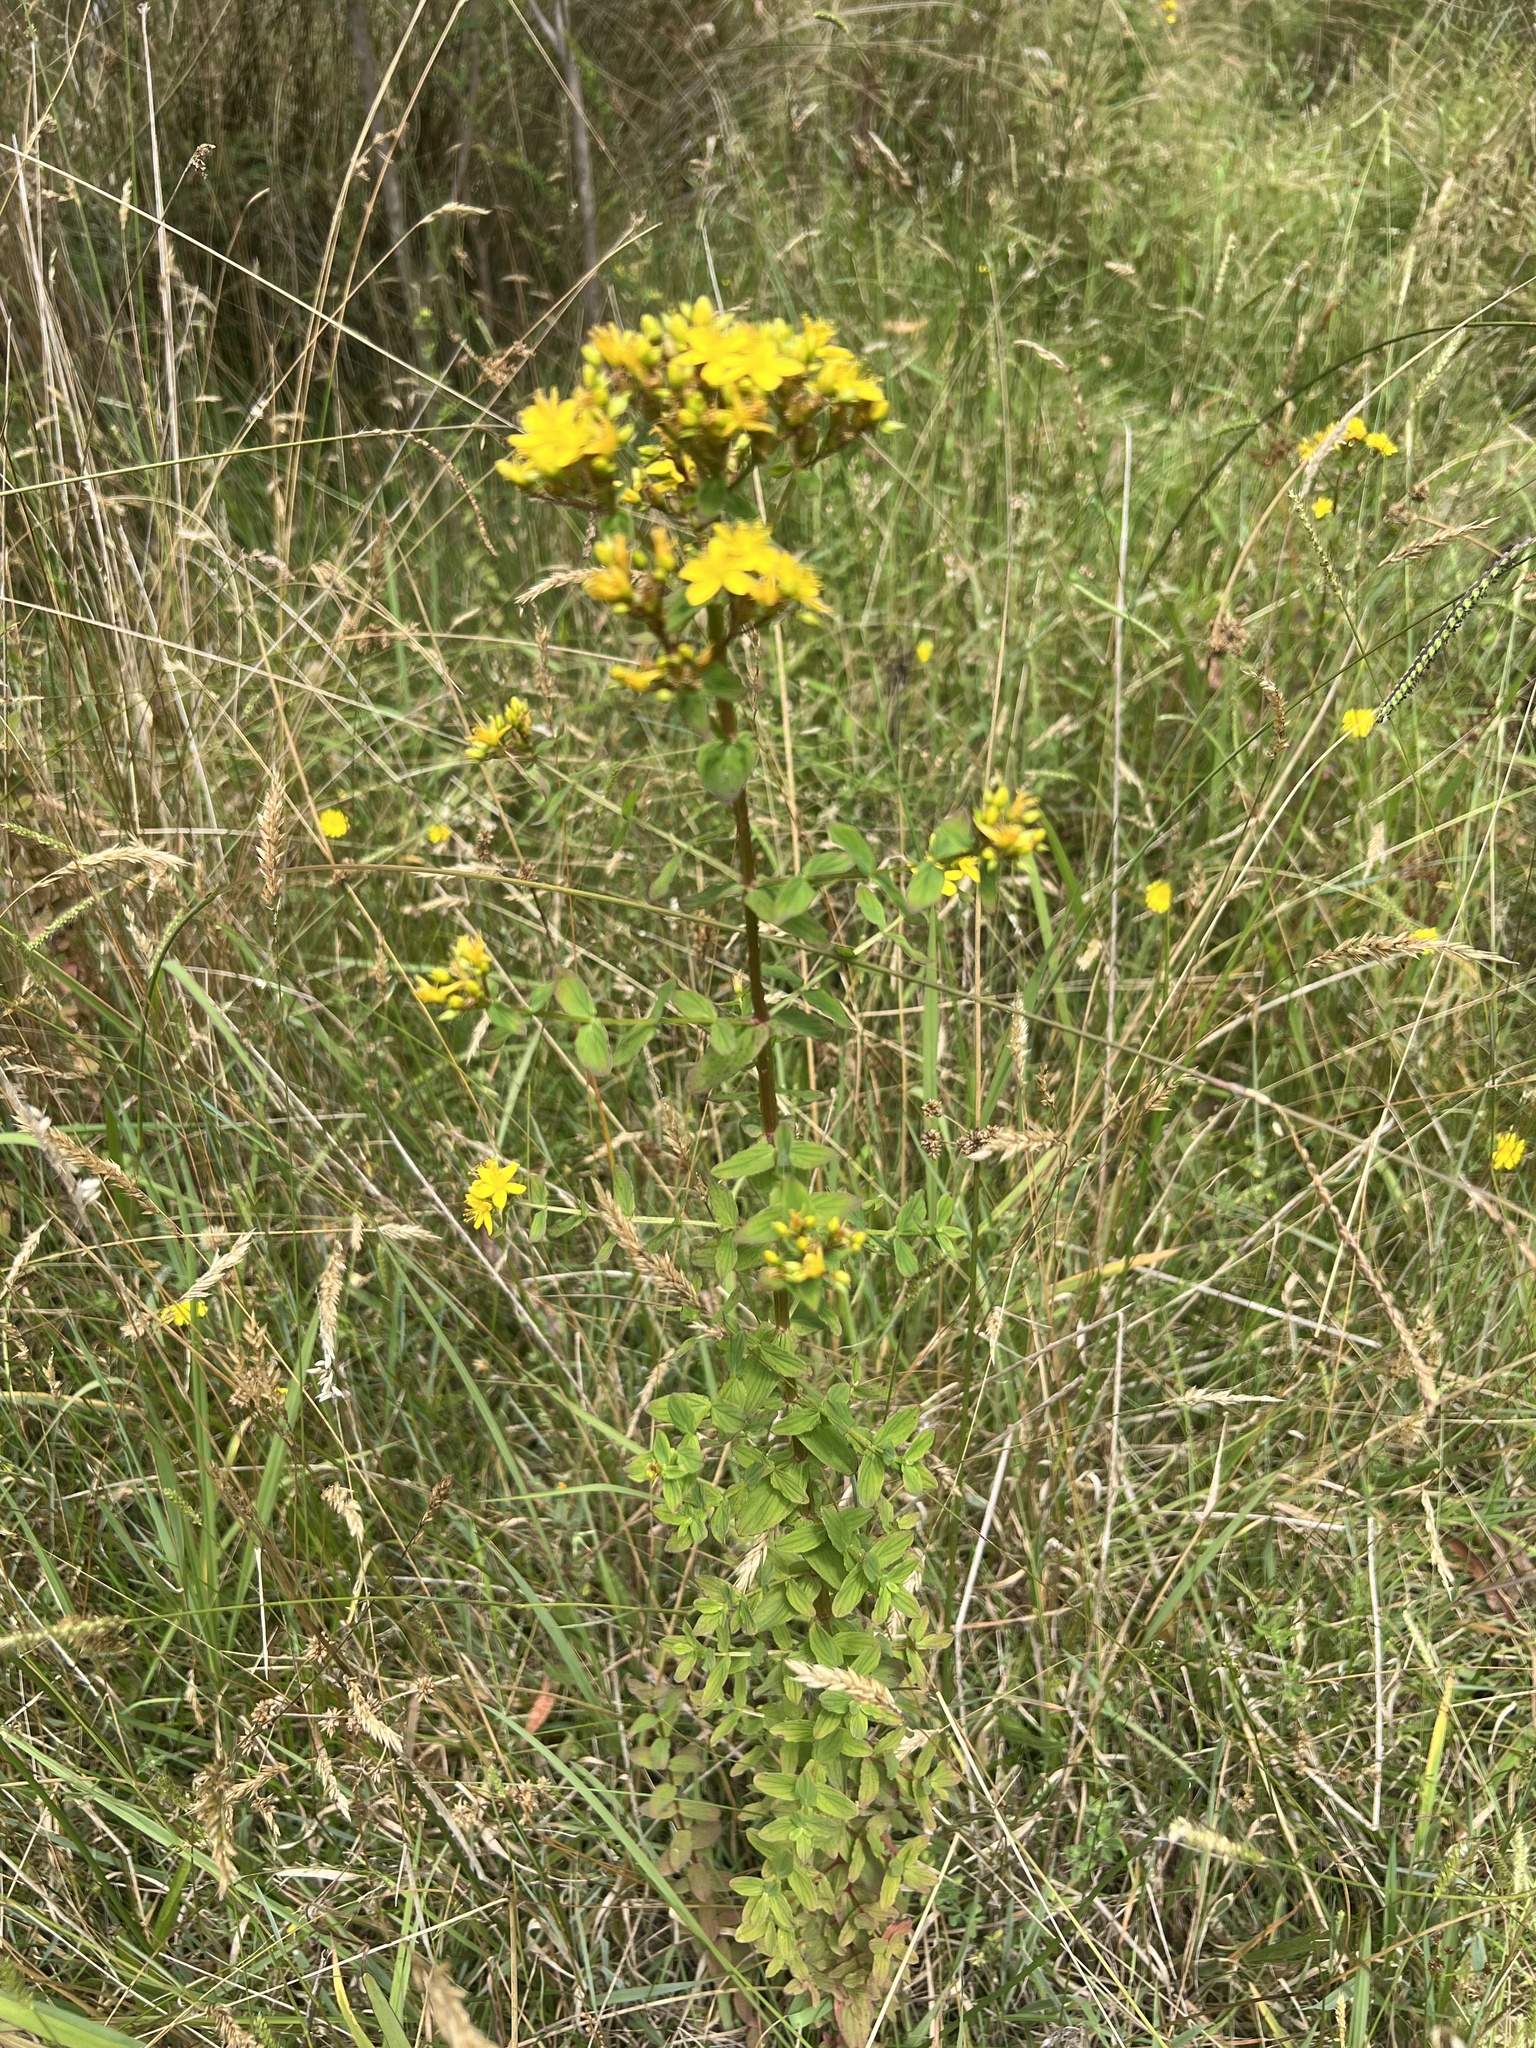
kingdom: Plantae
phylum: Tracheophyta
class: Magnoliopsida
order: Malpighiales
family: Hypericaceae
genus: Hypericum
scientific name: Hypericum tetrapterum
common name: Square-stalked st. john's-wort
